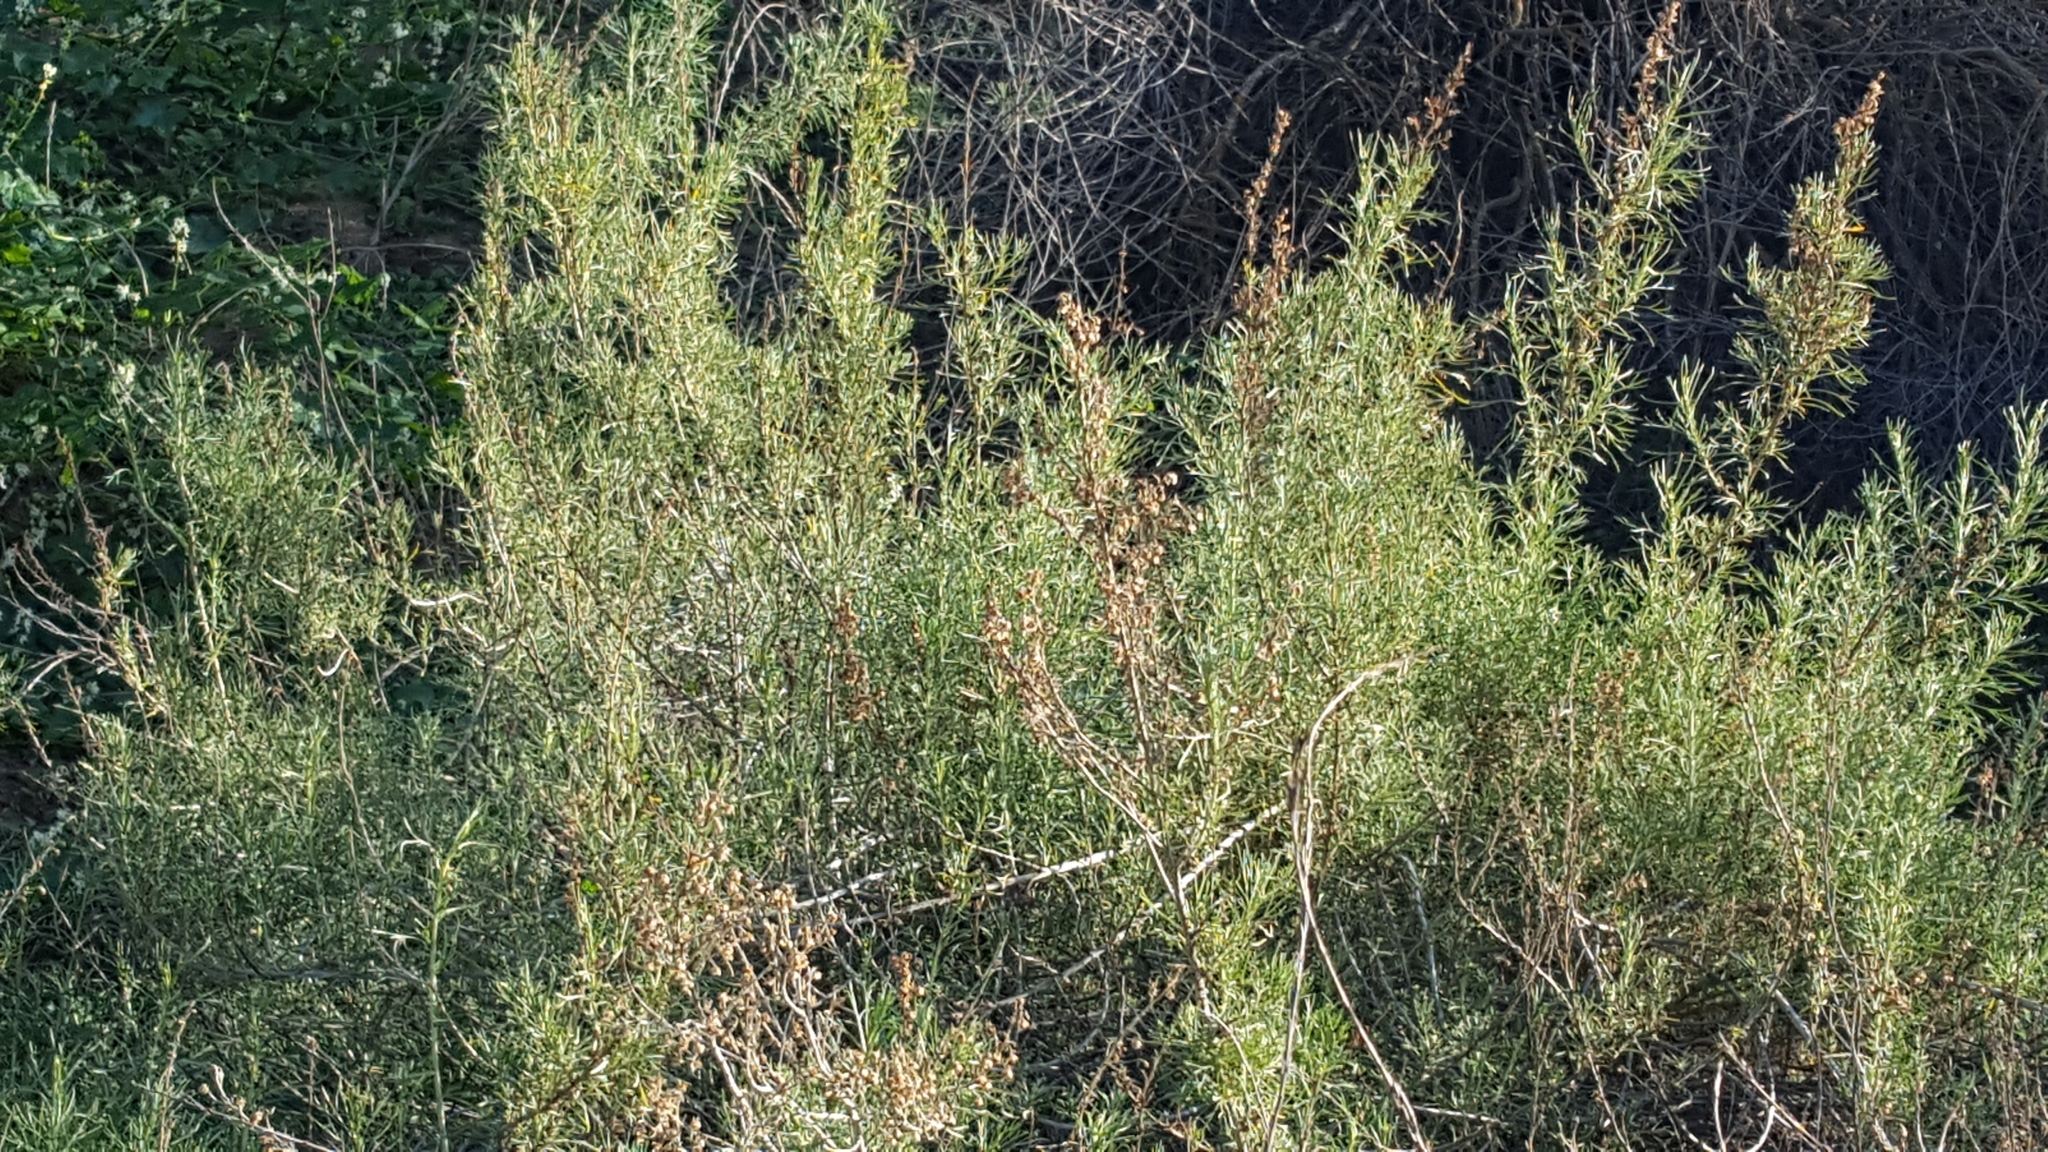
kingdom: Plantae
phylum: Tracheophyta
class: Magnoliopsida
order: Asterales
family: Asteraceae
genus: Artemisia
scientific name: Artemisia californica
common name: California sagebrush
